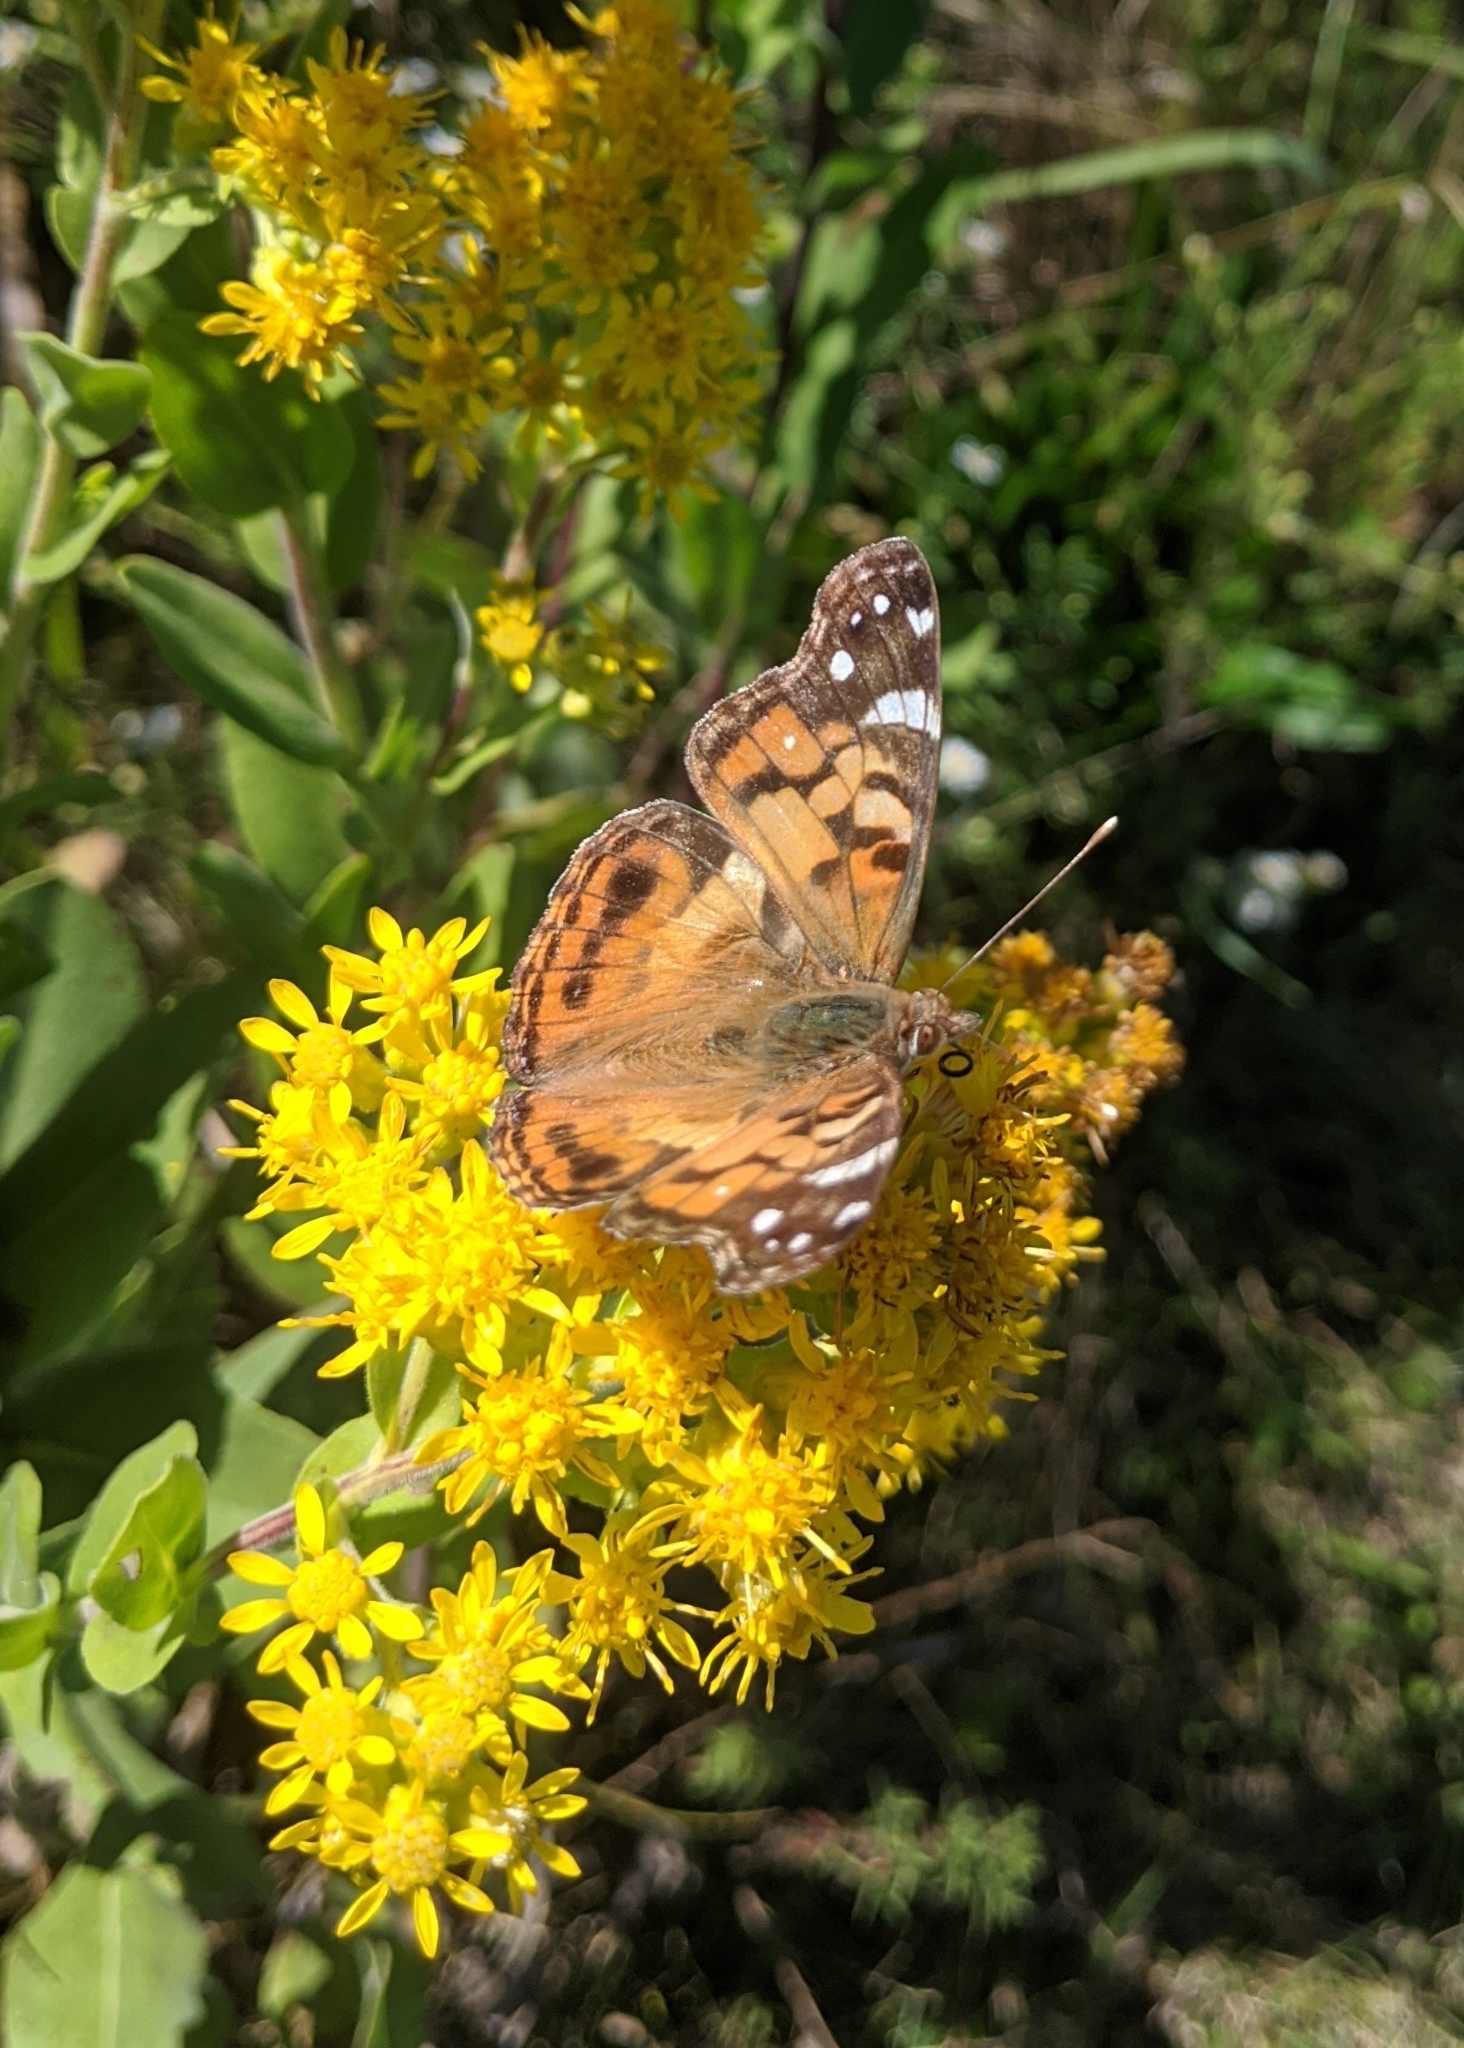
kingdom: Animalia
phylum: Arthropoda
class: Insecta
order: Lepidoptera
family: Nymphalidae
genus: Vanessa
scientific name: Vanessa virginiensis
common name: American lady
